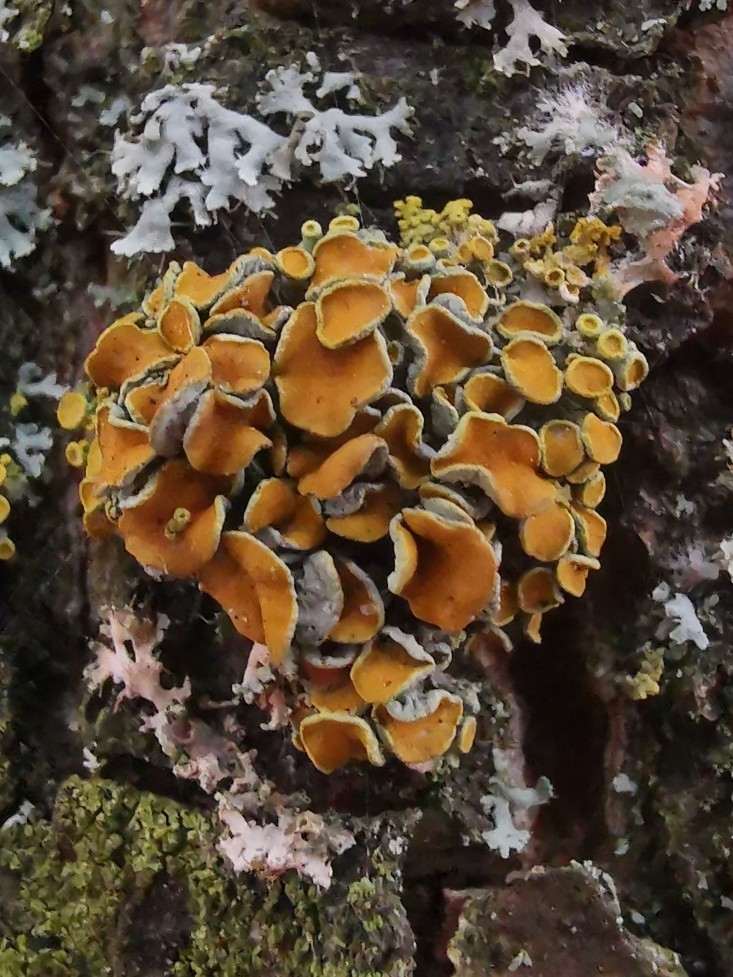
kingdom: Fungi
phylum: Ascomycota
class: Lecanoromycetes
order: Teloschistales
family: Teloschistaceae
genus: Polycauliona
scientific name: Polycauliona polycarpa
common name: Pin-cushion sunburst lichen
